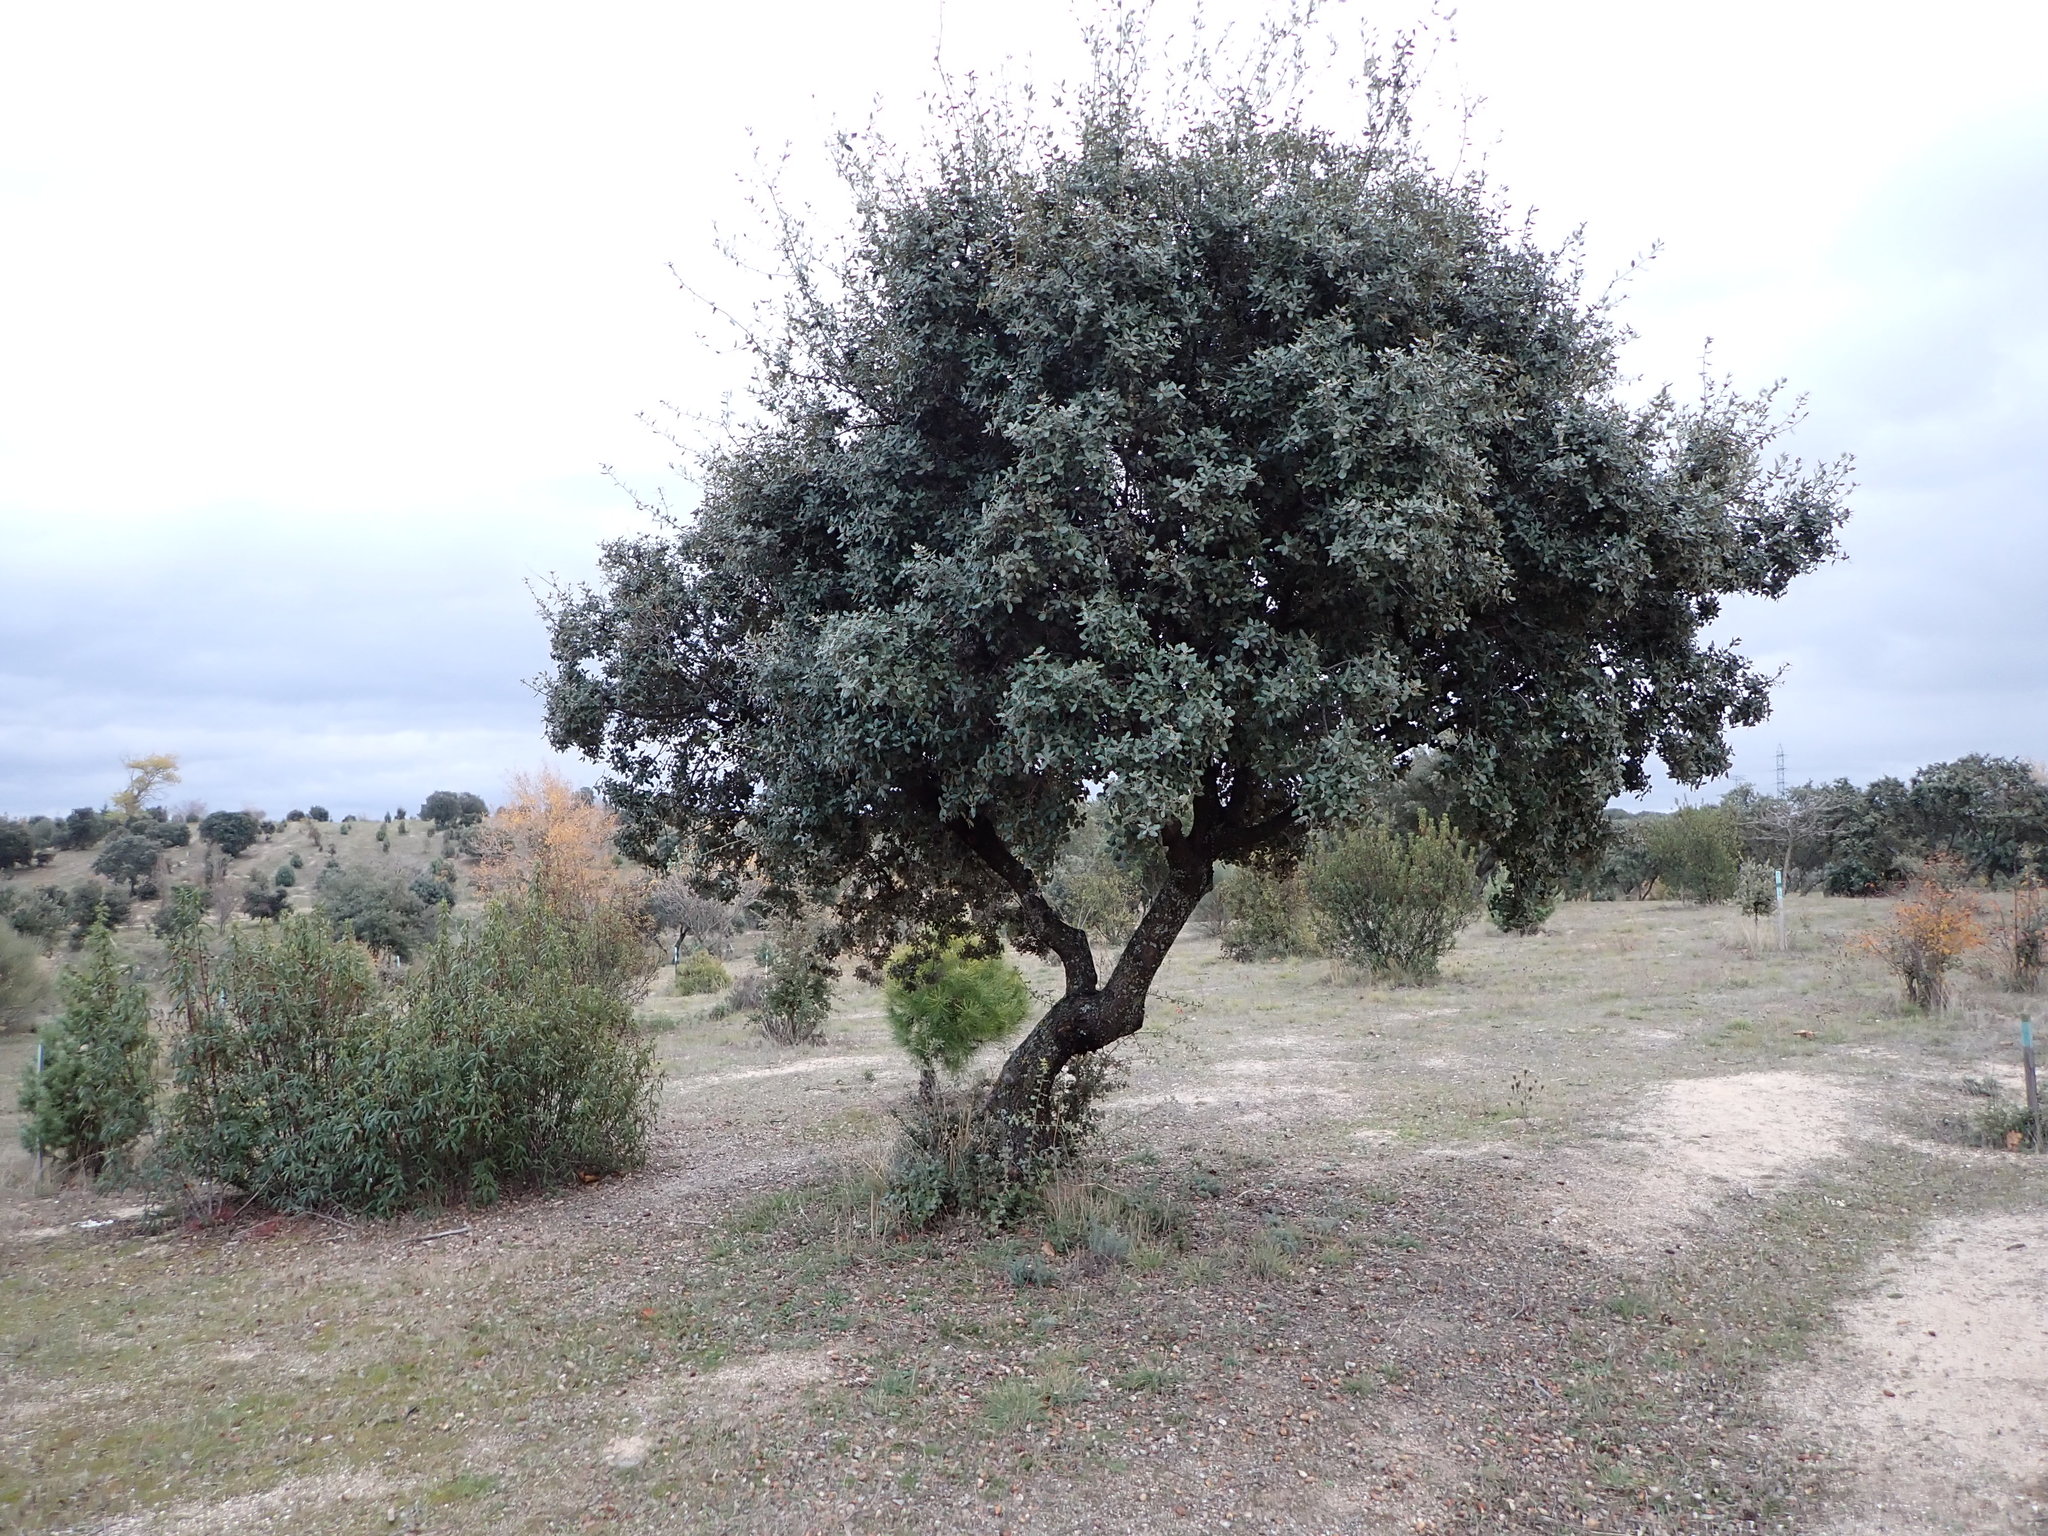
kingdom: Plantae
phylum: Tracheophyta
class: Magnoliopsida
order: Fagales
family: Fagaceae
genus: Quercus
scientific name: Quercus rotundifolia
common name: Holm oak
